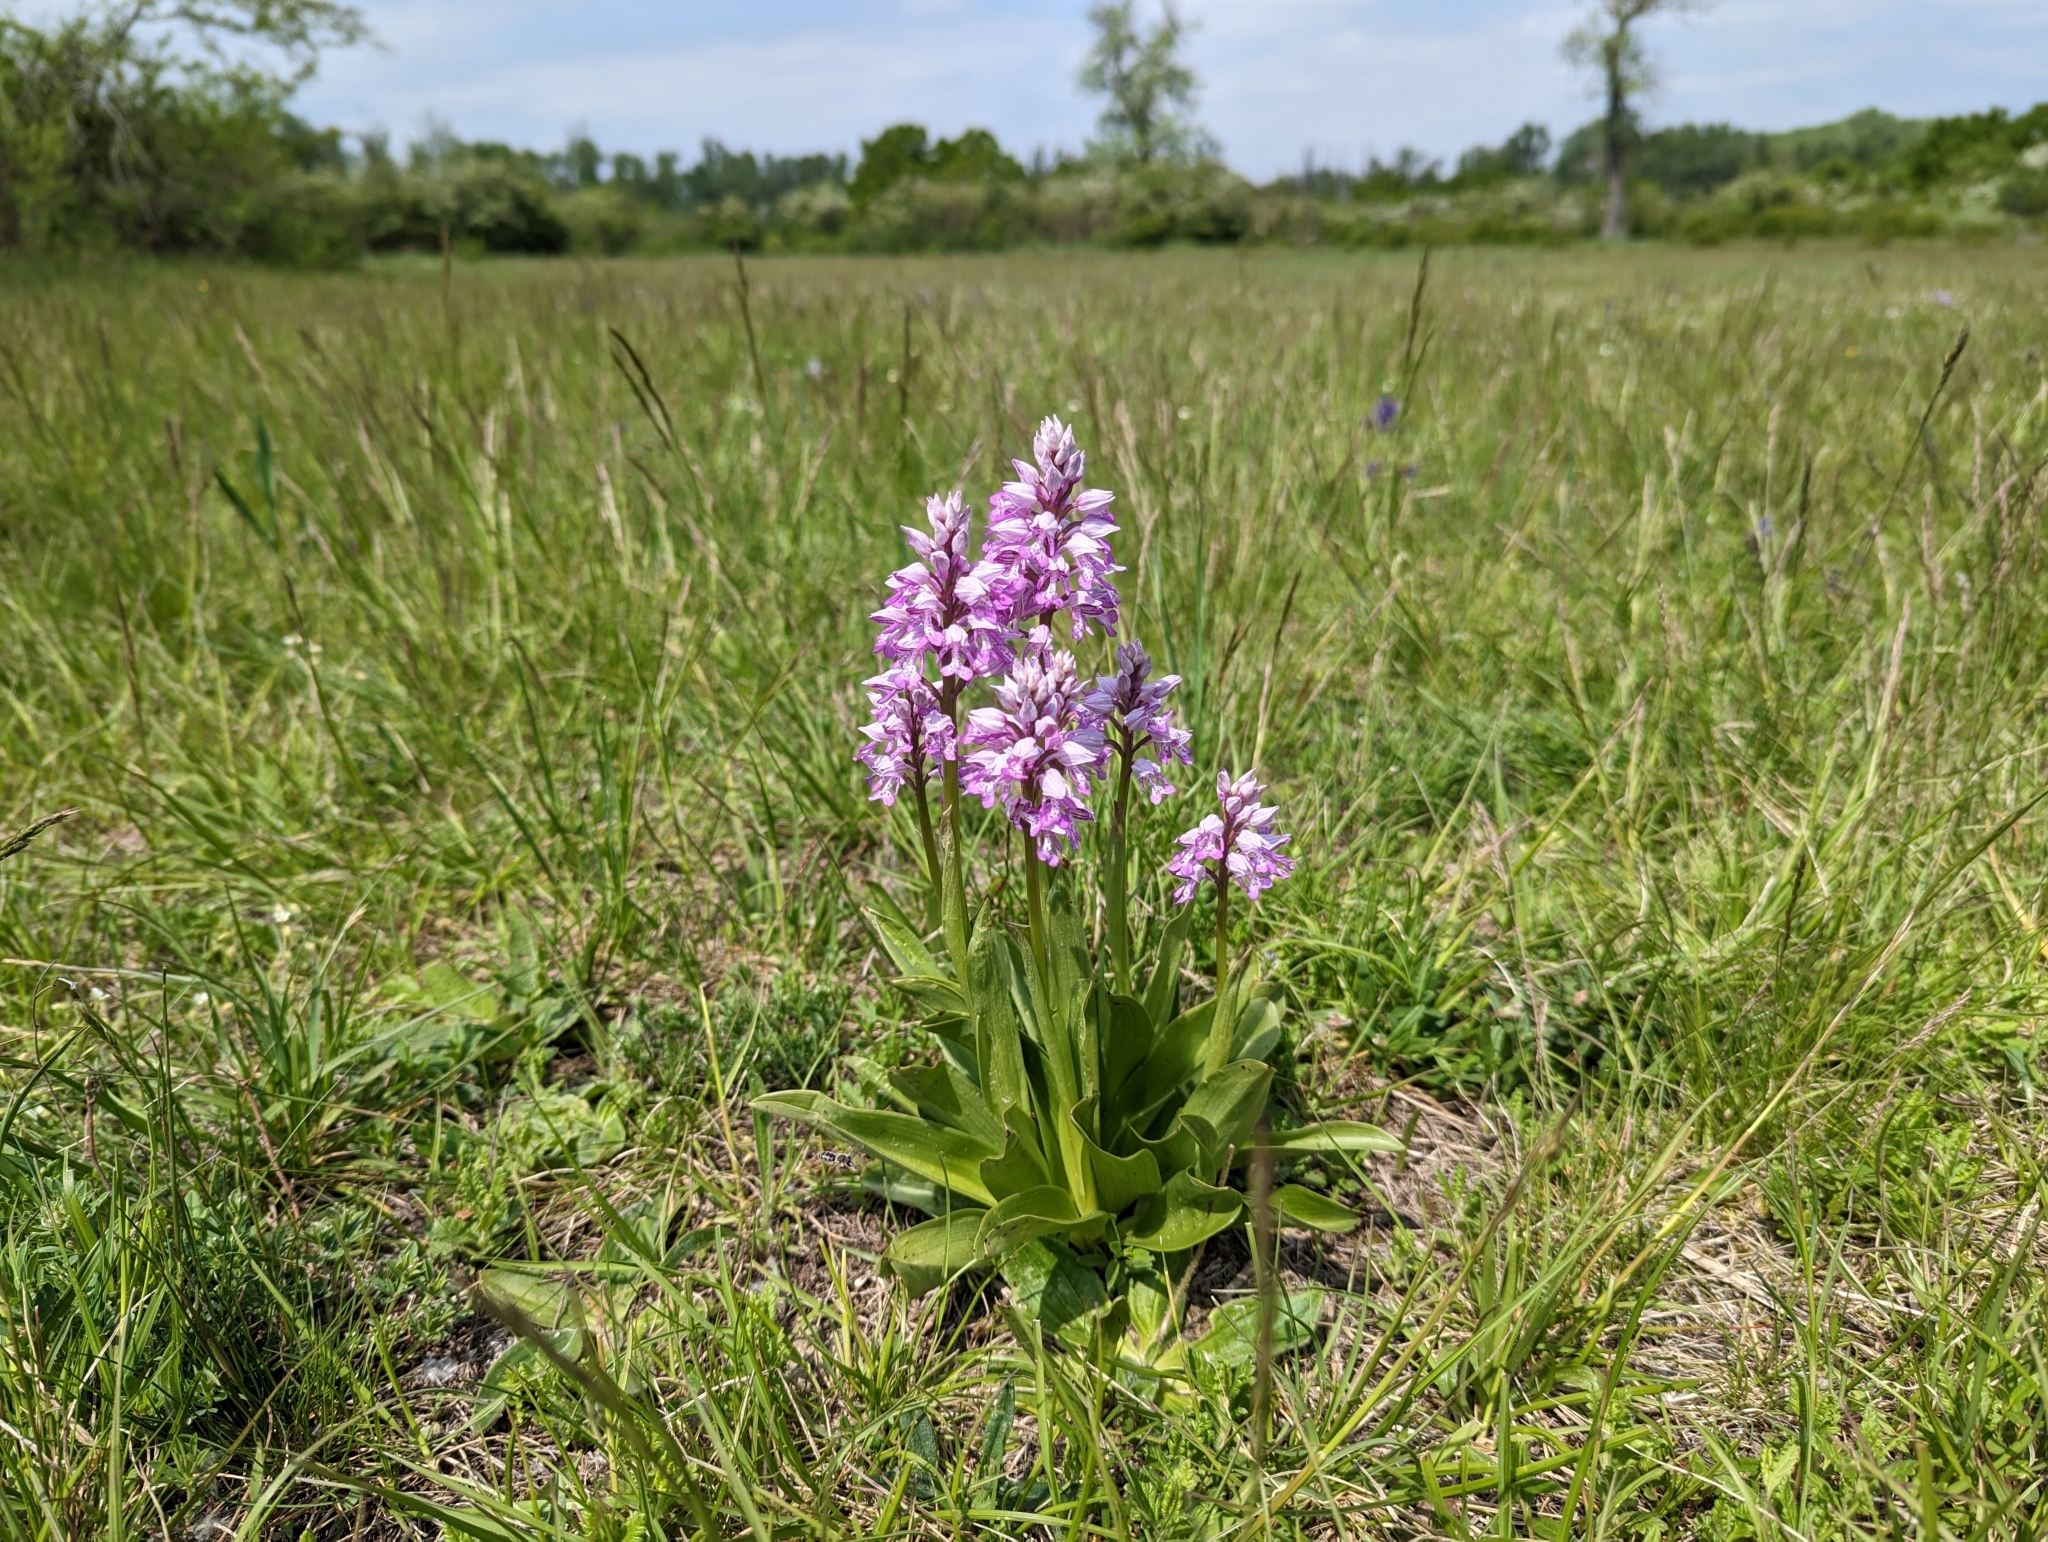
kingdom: Plantae
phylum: Tracheophyta
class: Liliopsida
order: Asparagales
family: Orchidaceae
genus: Orchis
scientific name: Orchis militaris
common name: Military orchid
